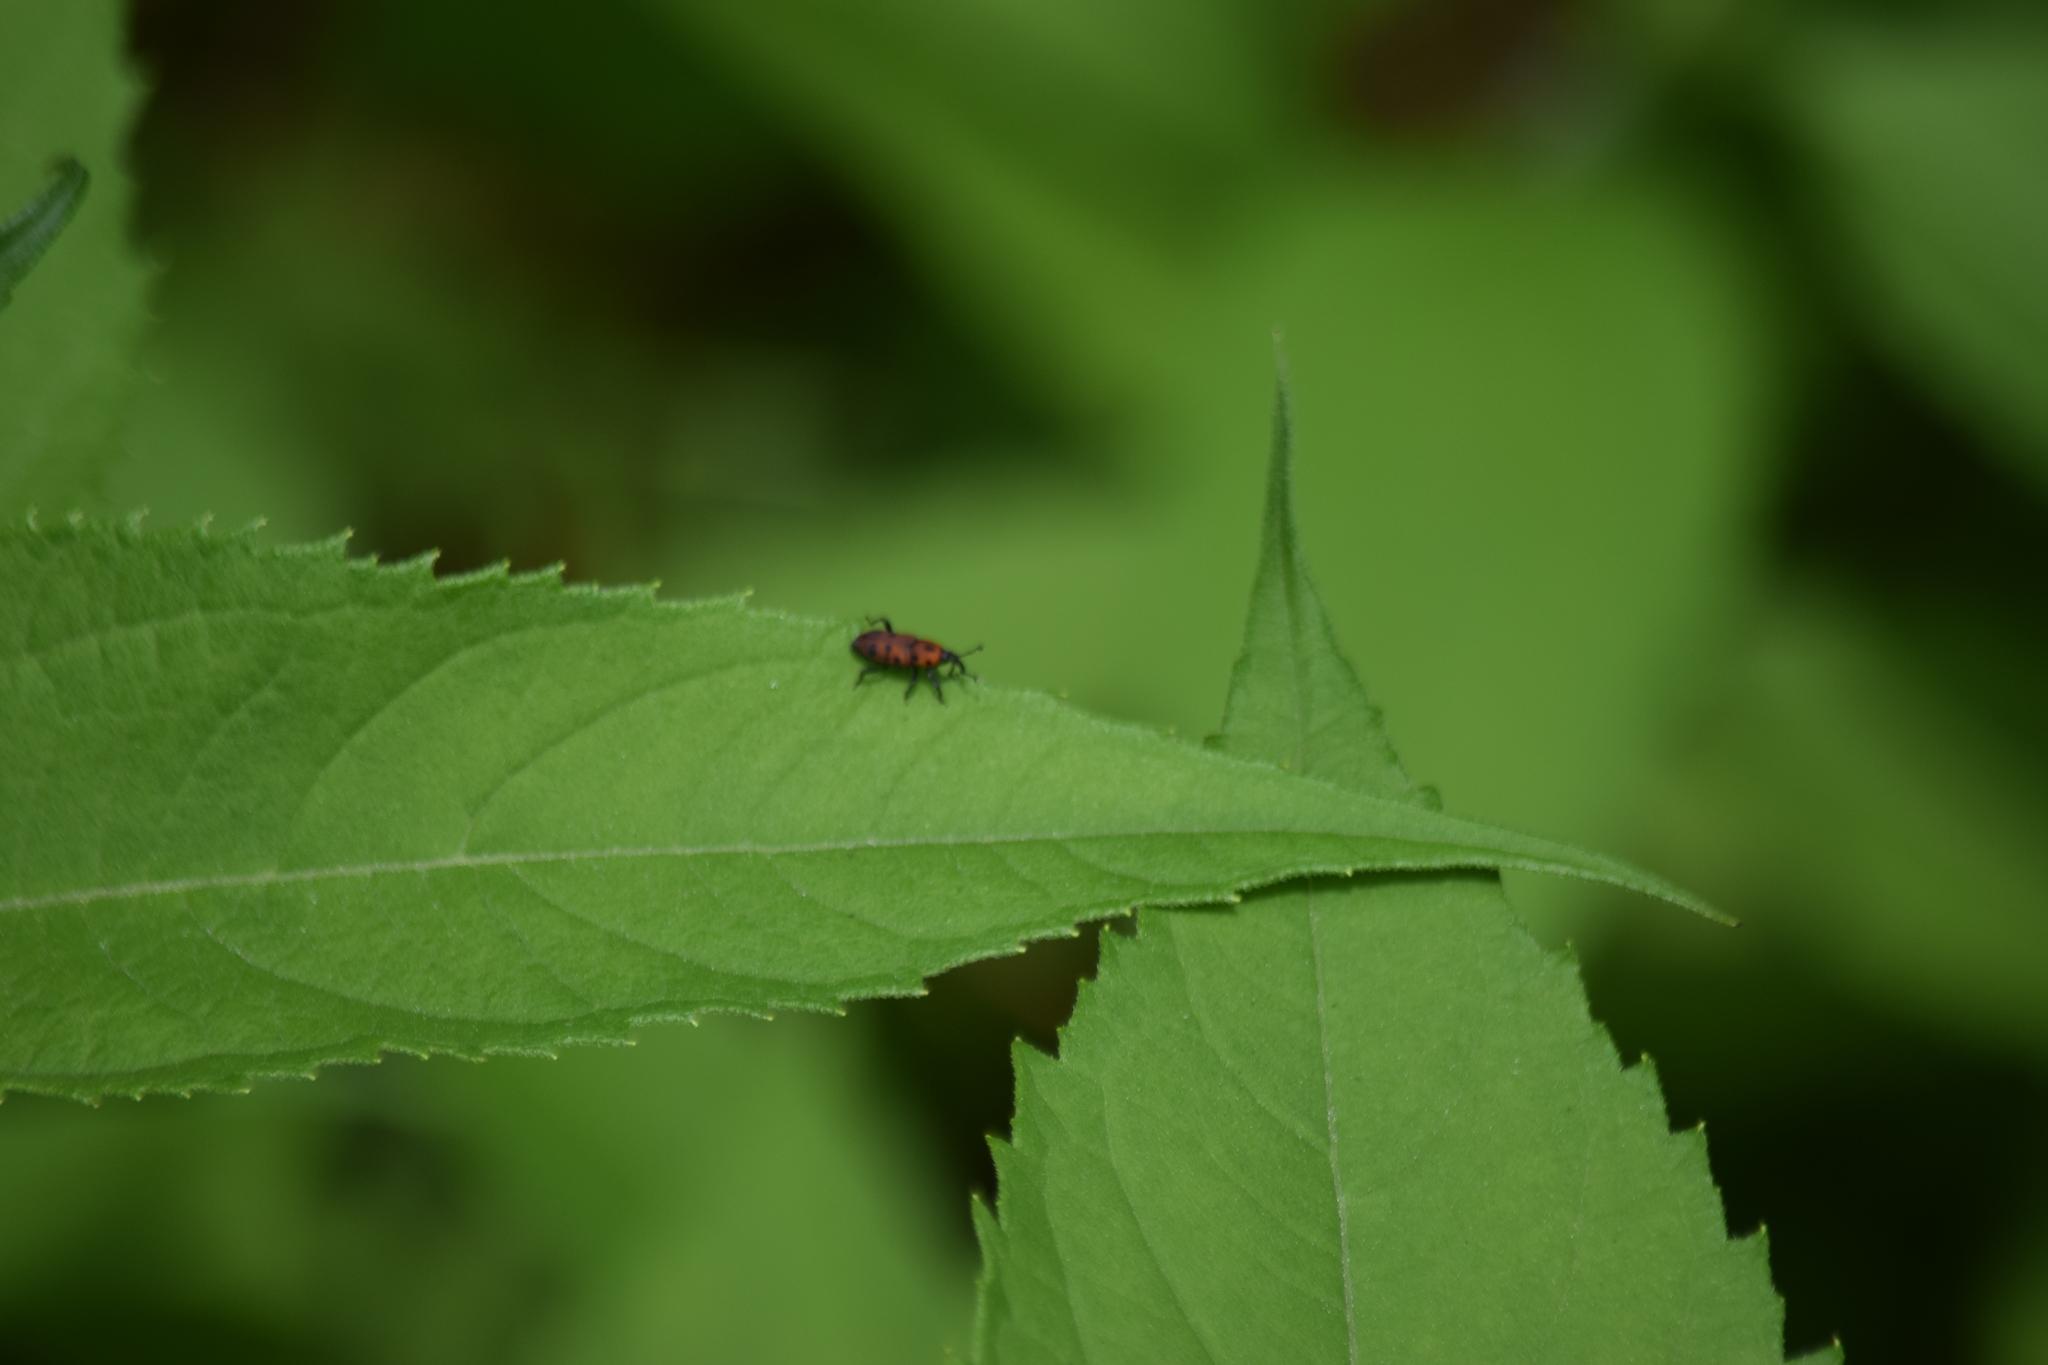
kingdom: Animalia
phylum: Arthropoda
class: Insecta
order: Coleoptera
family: Dryophthoridae
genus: Rhodobaenus
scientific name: Rhodobaenus tredecimpunctatus
